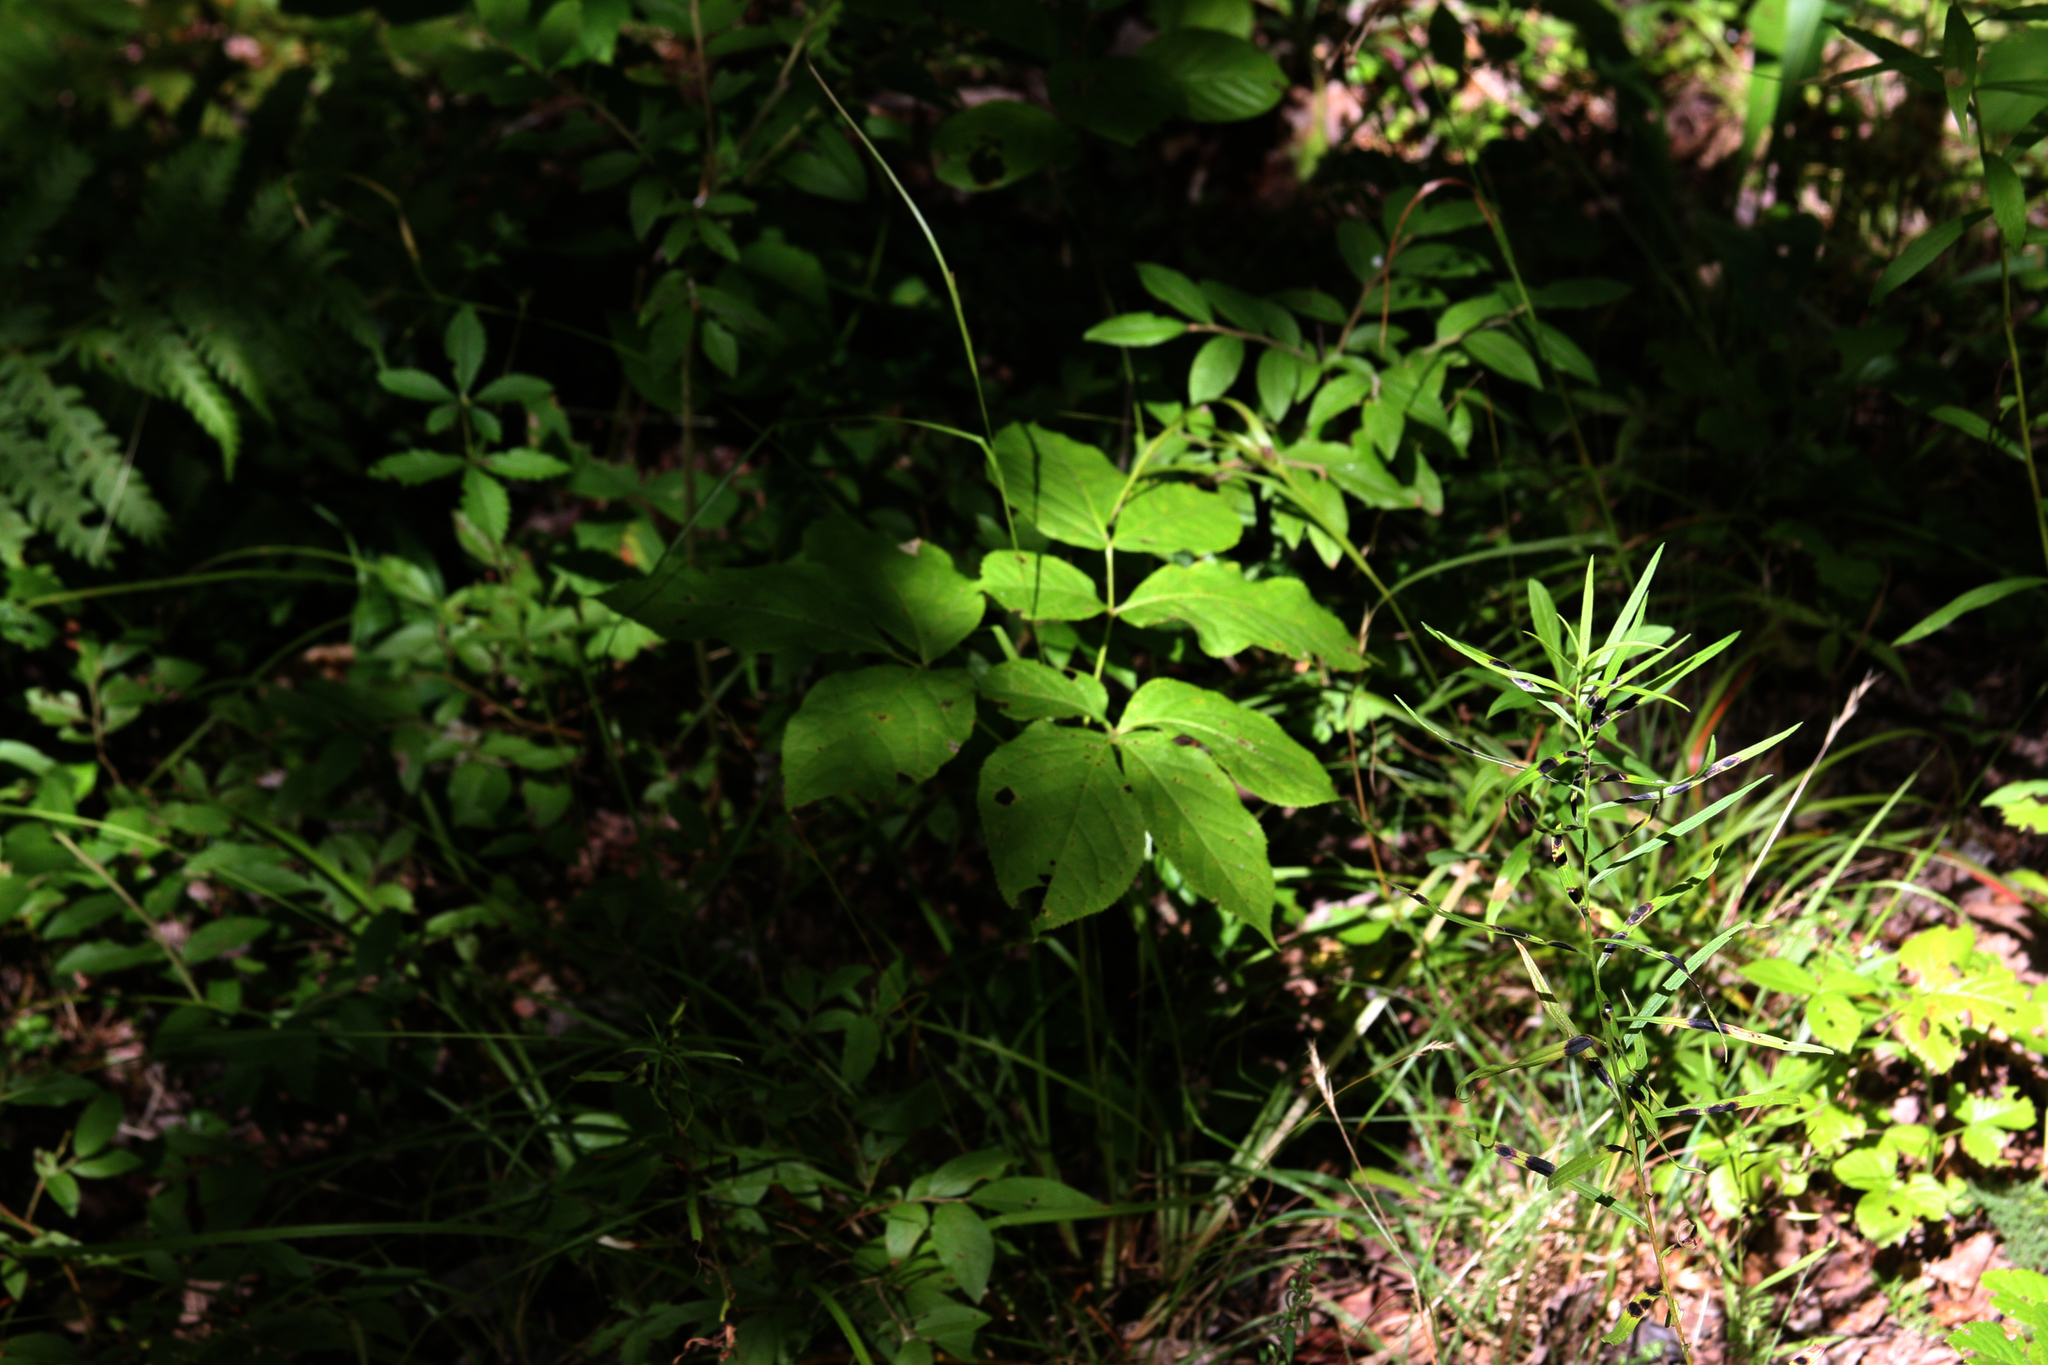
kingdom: Plantae
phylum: Tracheophyta
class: Magnoliopsida
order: Apiales
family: Araliaceae
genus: Aralia
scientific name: Aralia nudicaulis
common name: Wild sarsaparilla
